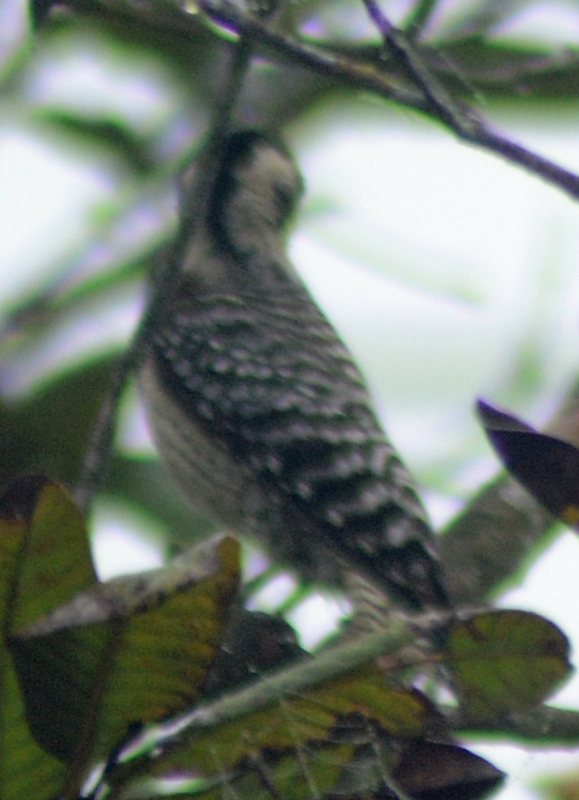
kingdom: Animalia
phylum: Chordata
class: Aves
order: Piciformes
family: Picidae
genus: Dryobates
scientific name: Dryobates scalaris
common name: Ladder-backed woodpecker
